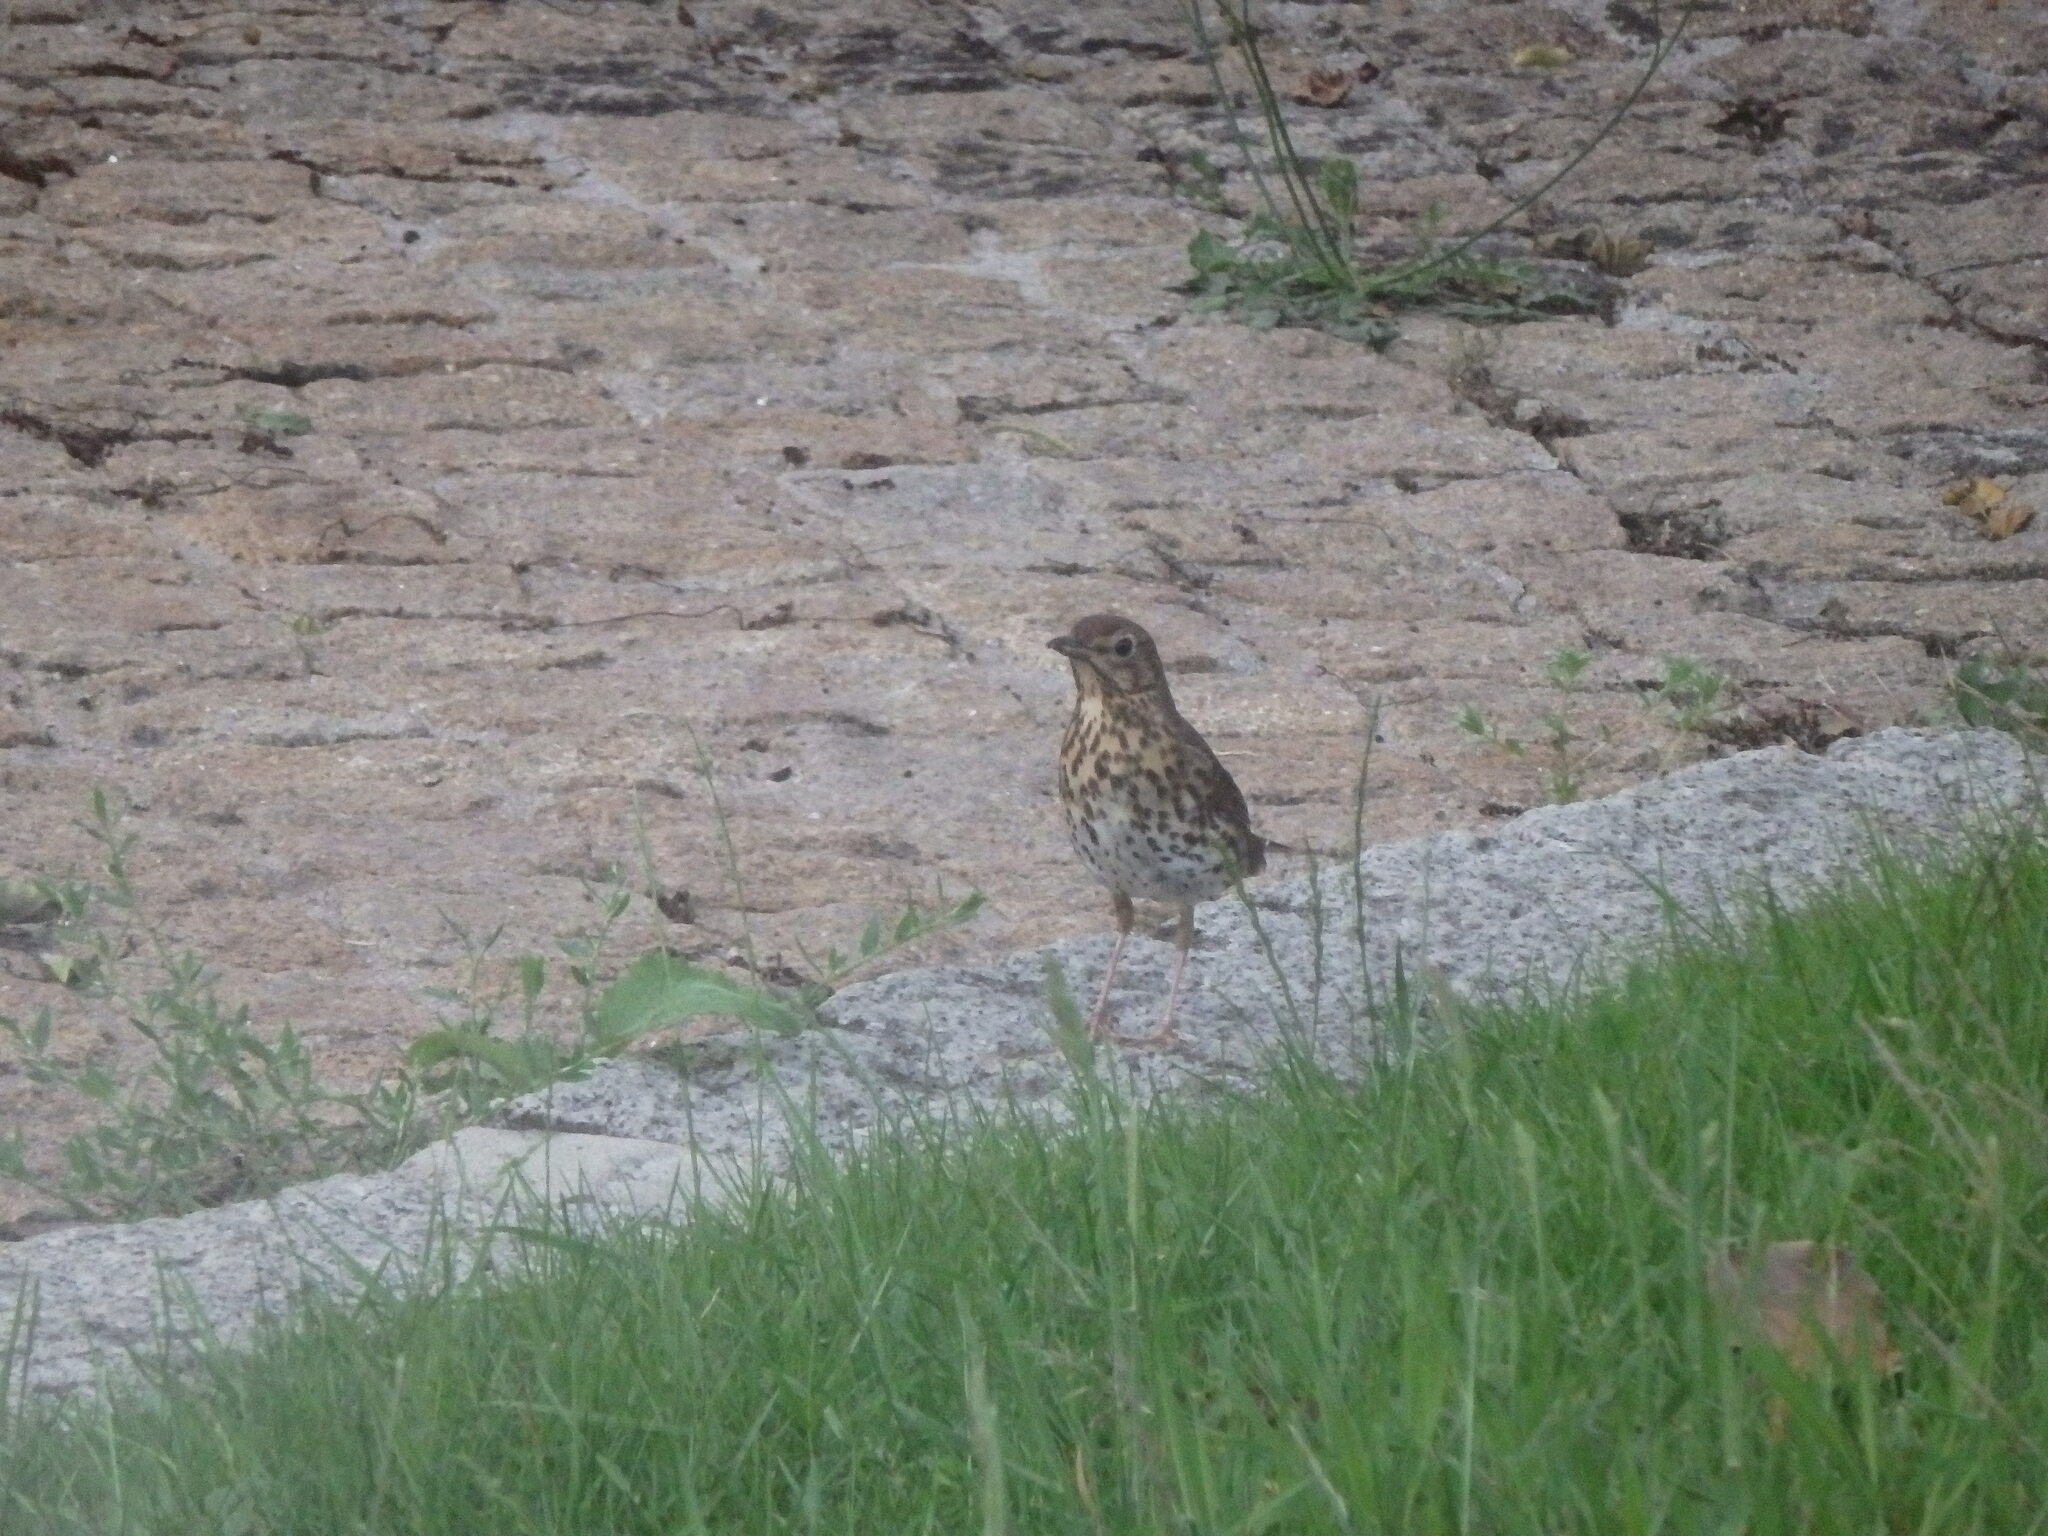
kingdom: Animalia
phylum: Chordata
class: Aves
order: Passeriformes
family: Turdidae
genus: Turdus
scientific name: Turdus philomelos
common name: Song thrush
